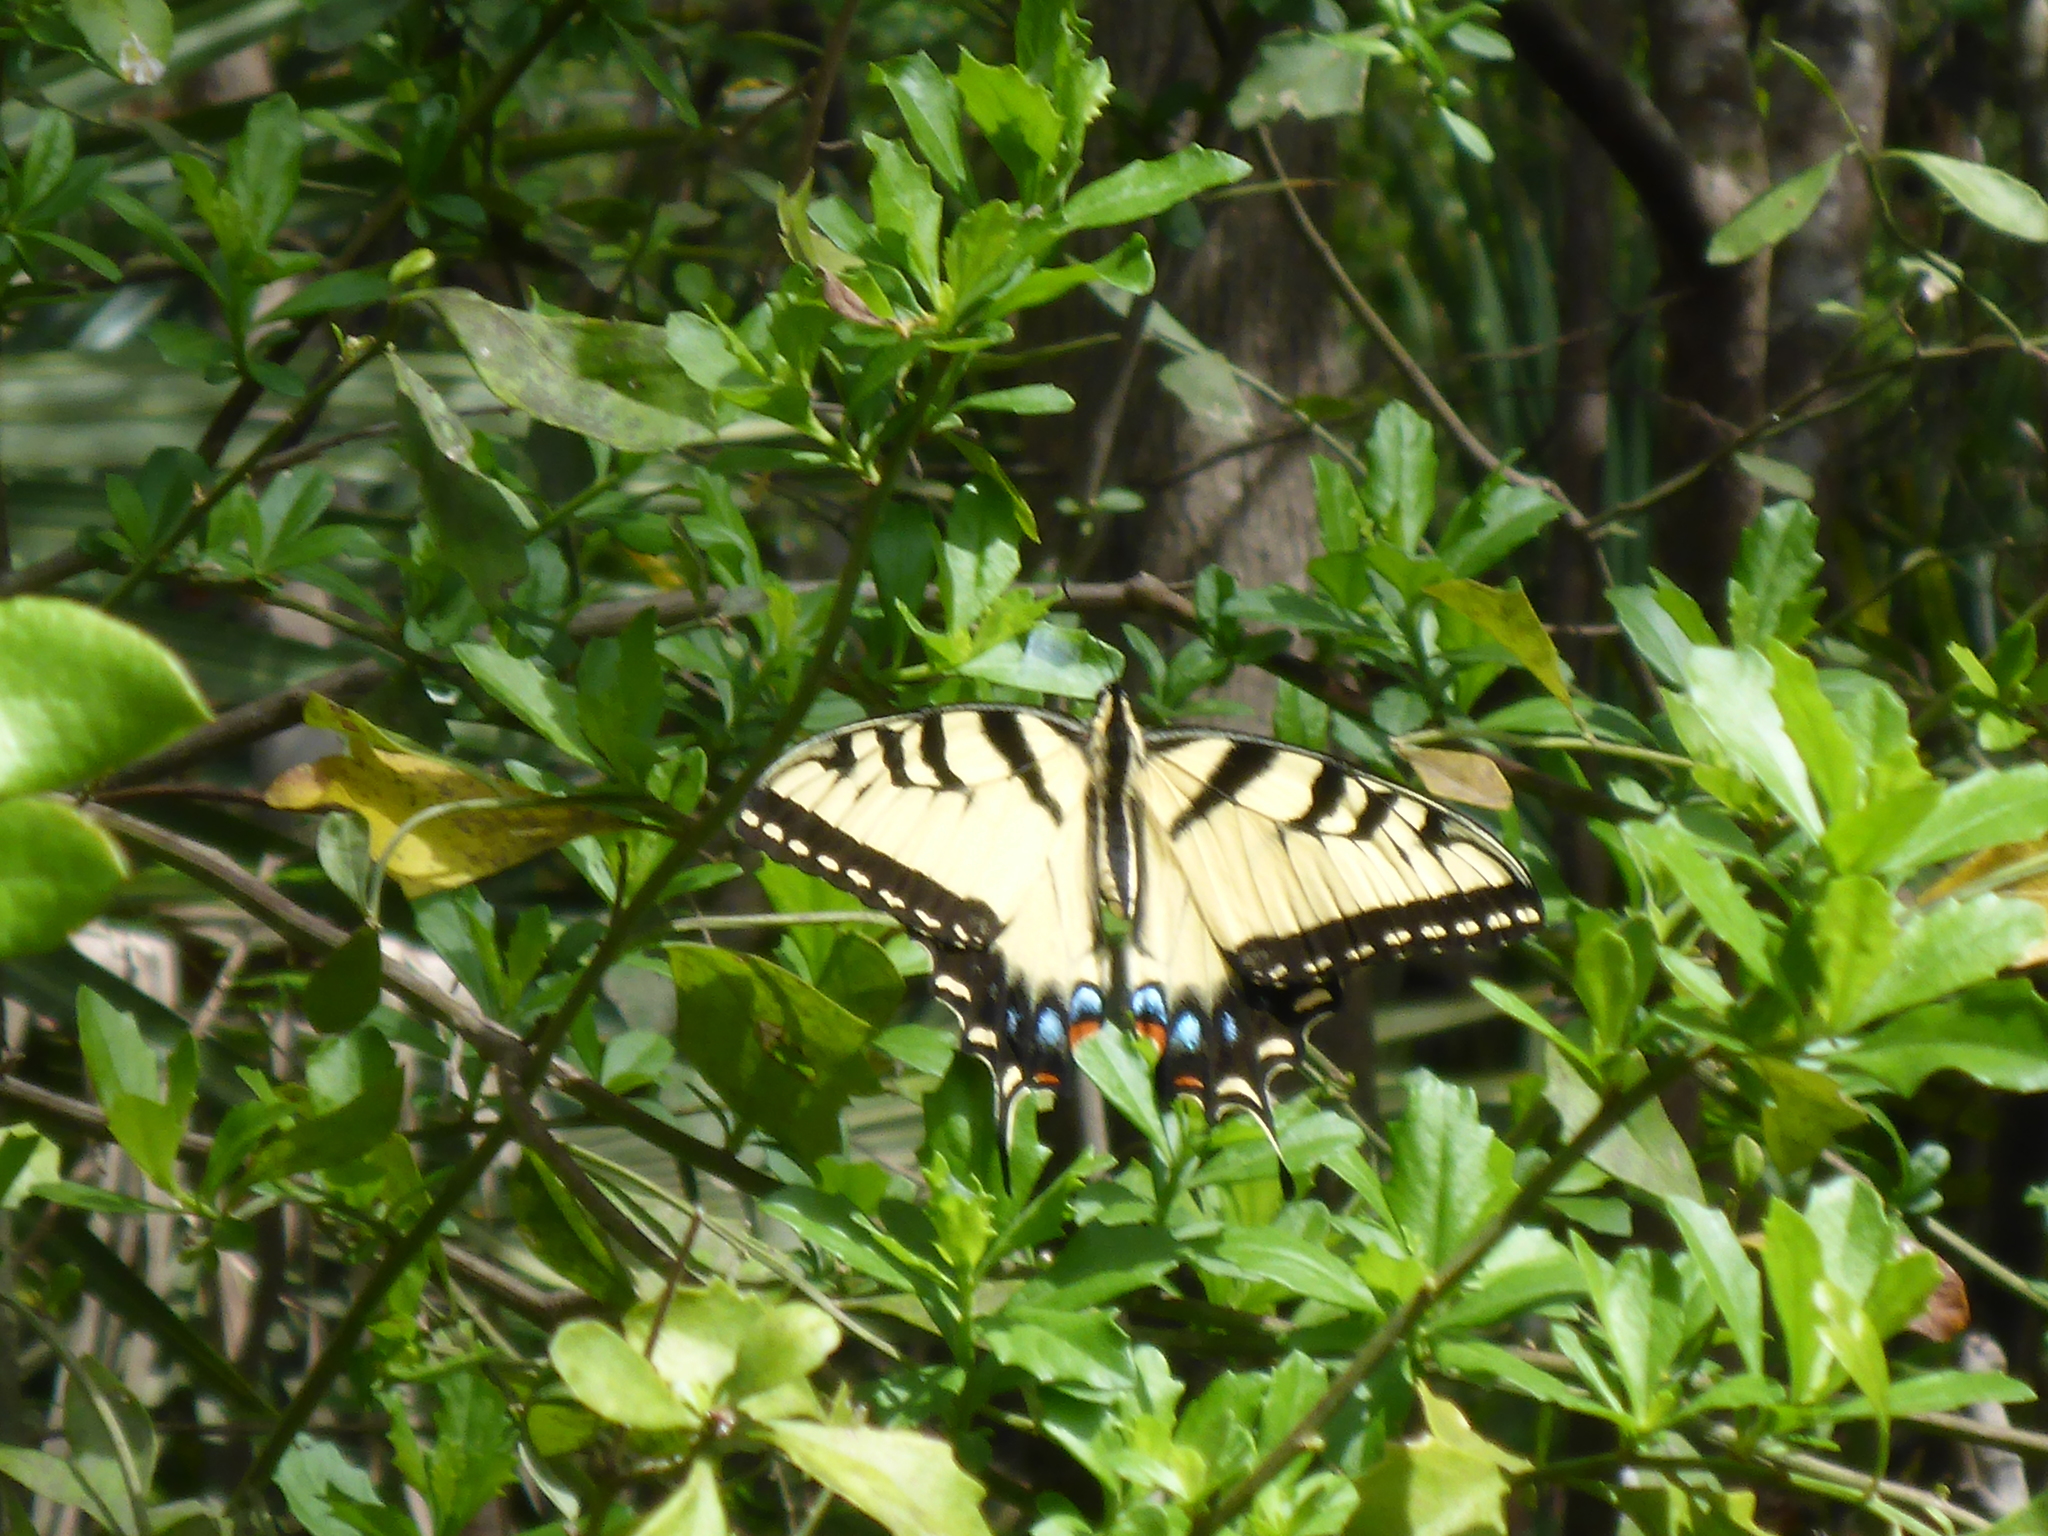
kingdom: Animalia
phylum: Arthropoda
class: Insecta
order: Lepidoptera
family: Papilionidae
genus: Papilio
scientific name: Papilio glaucus
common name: Tiger swallowtail
